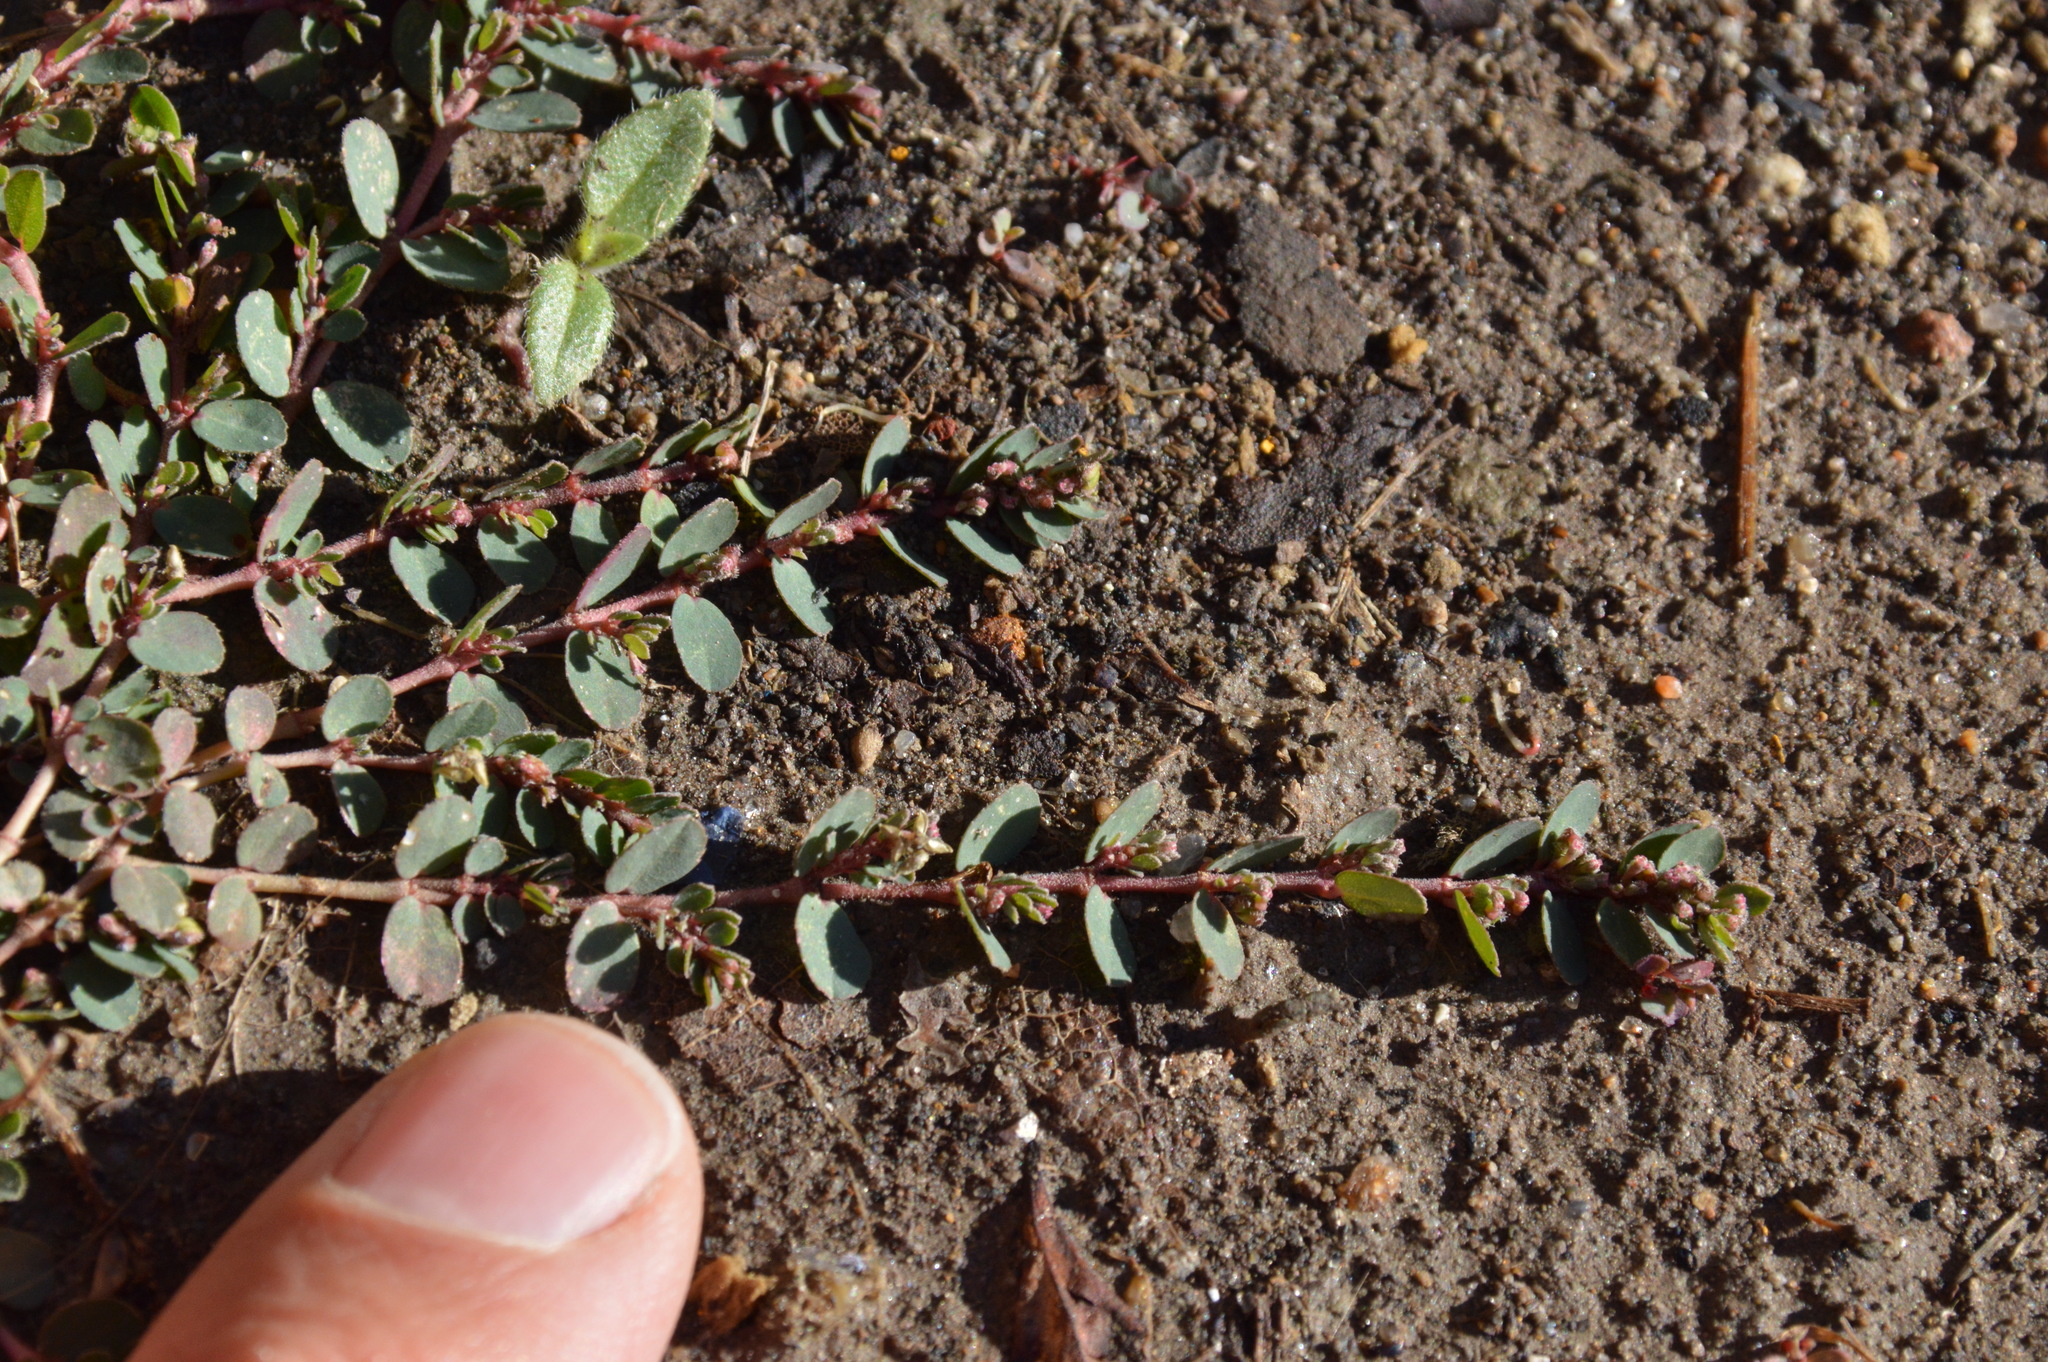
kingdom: Plantae
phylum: Tracheophyta
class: Magnoliopsida
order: Malpighiales
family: Euphorbiaceae
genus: Euphorbia
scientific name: Euphorbia prostrata
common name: Prostrate sandmat
